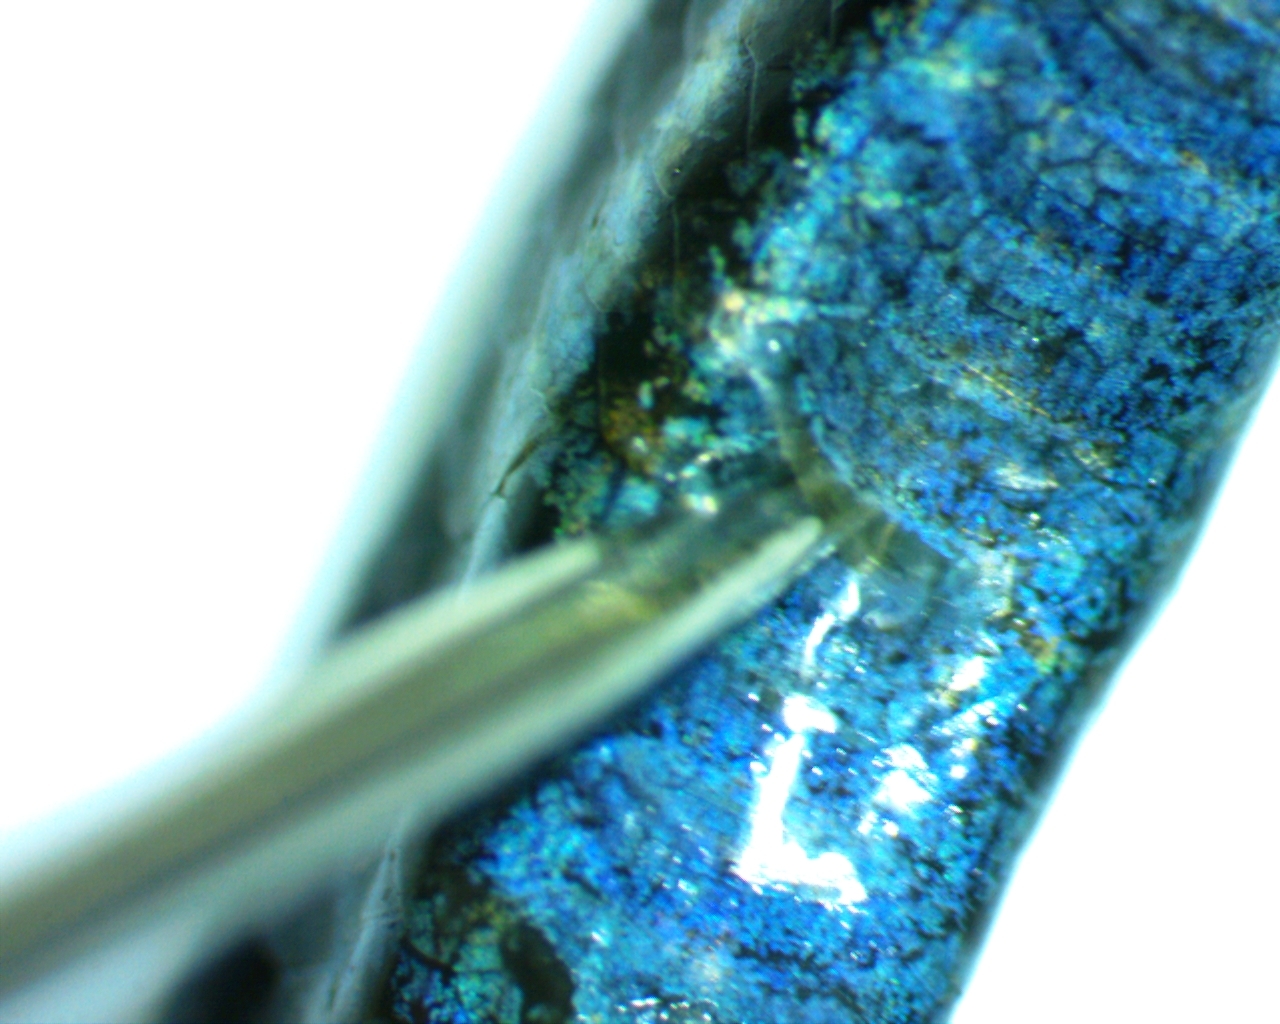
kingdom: Animalia
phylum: Chordata
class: Squamata
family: Scincidae
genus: Plestiodon
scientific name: Plestiodon fasciatus
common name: Five-lined skink
